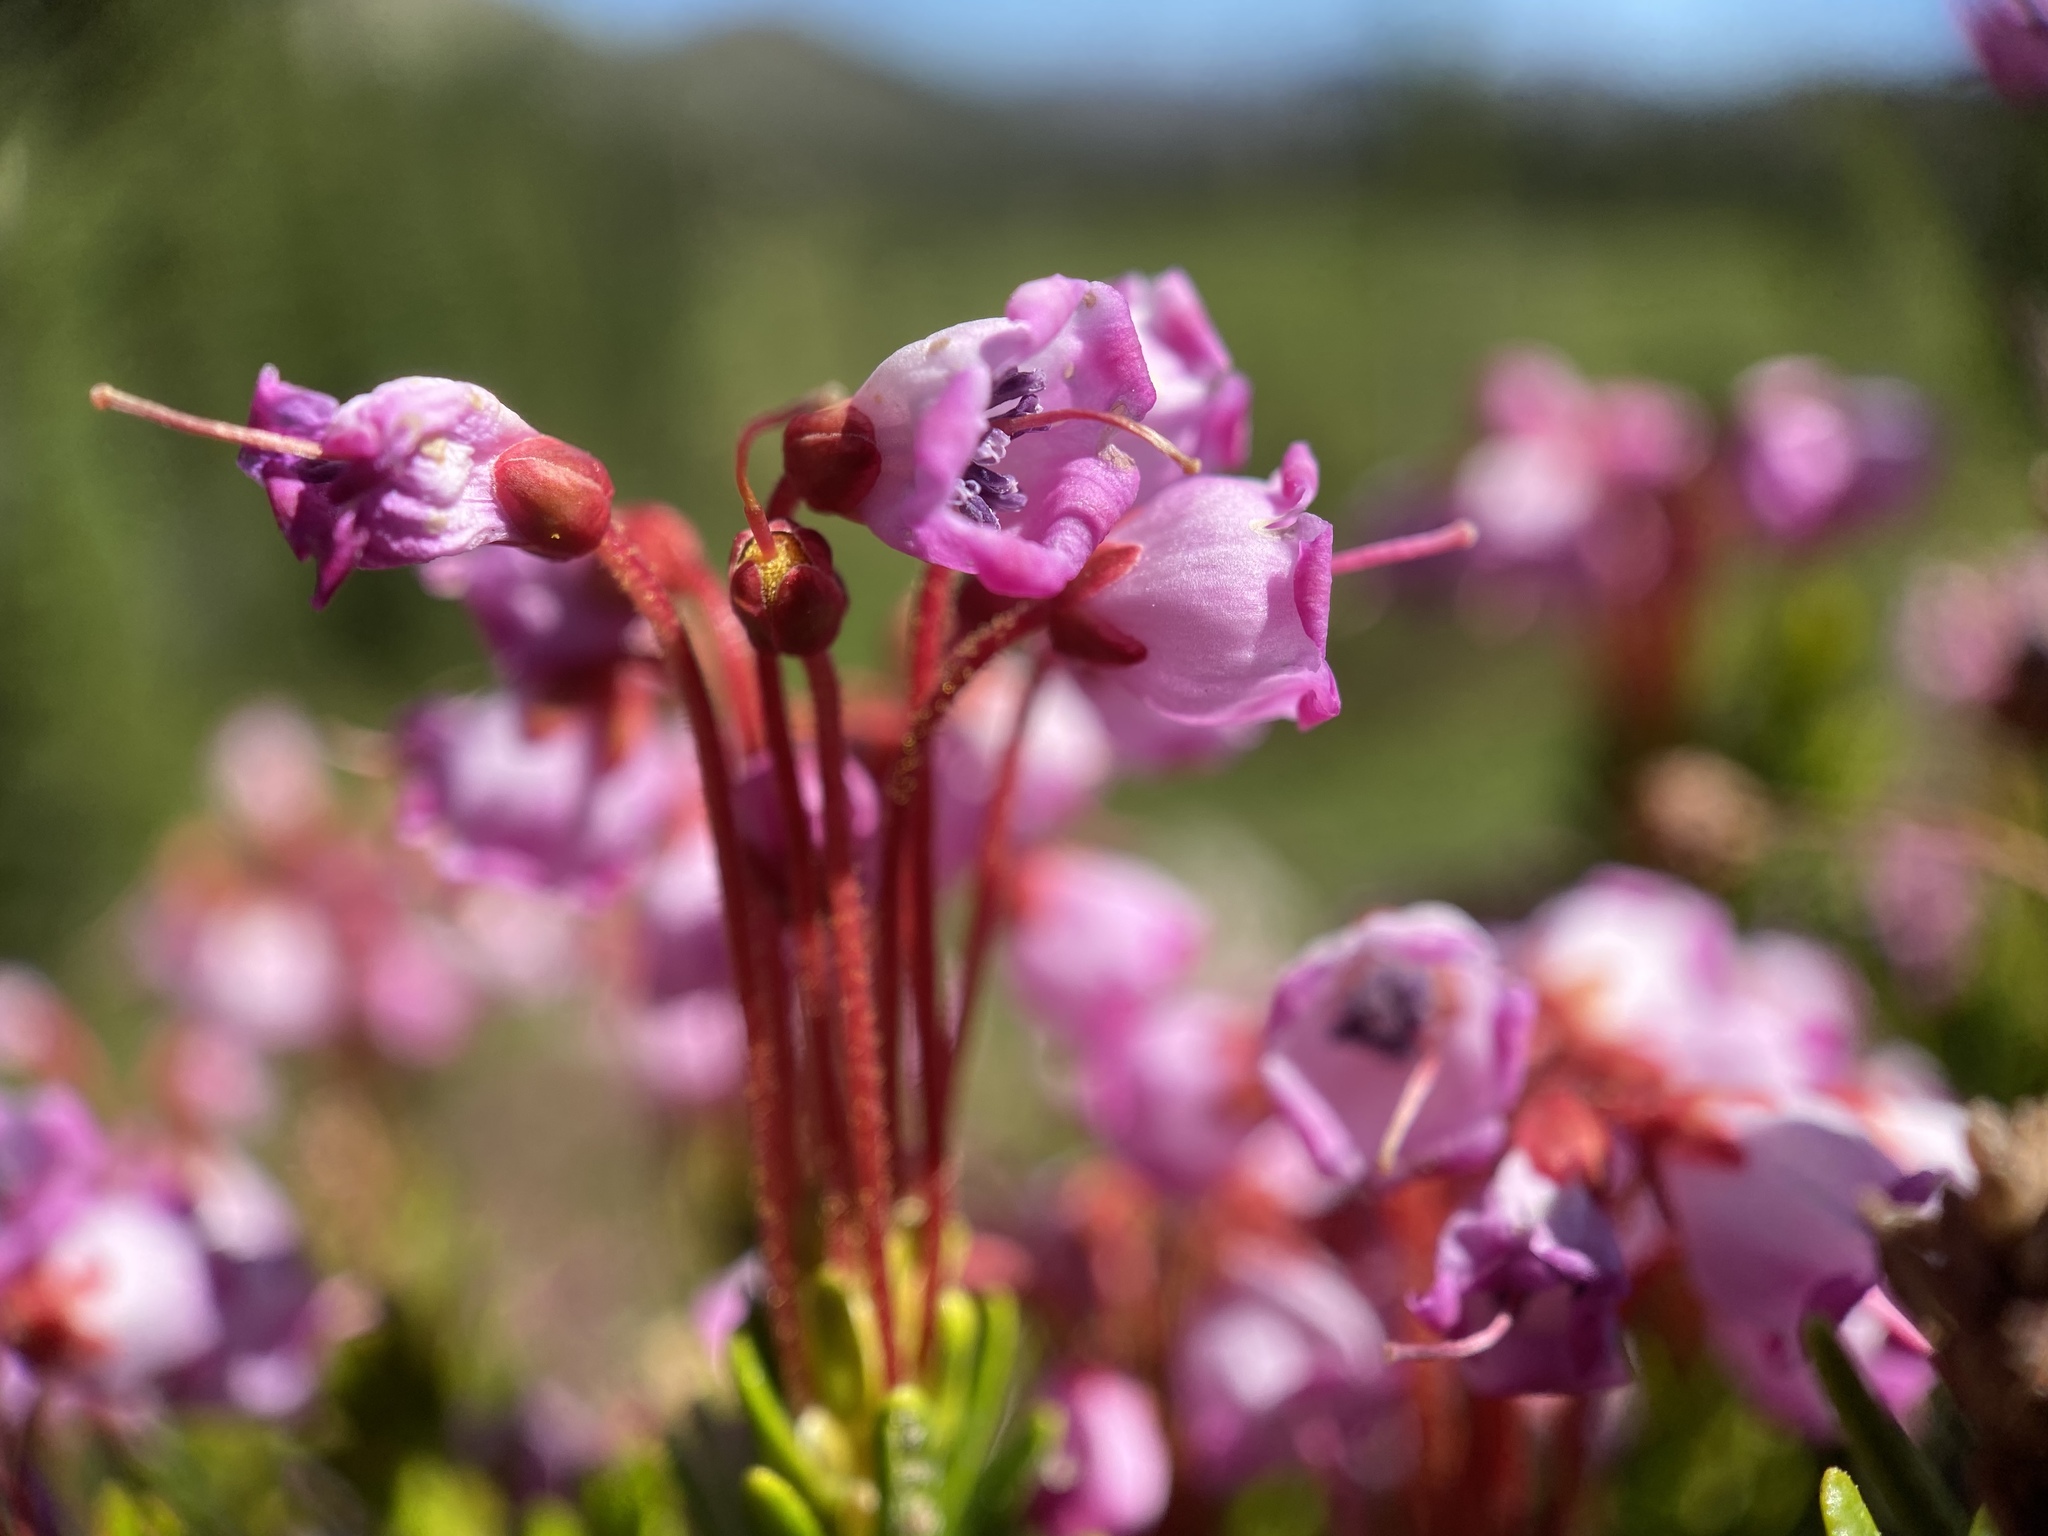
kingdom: Plantae
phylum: Tracheophyta
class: Magnoliopsida
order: Ericales
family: Ericaceae
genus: Phyllodoce
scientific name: Phyllodoce empetriformis
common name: Pink mountain heather
